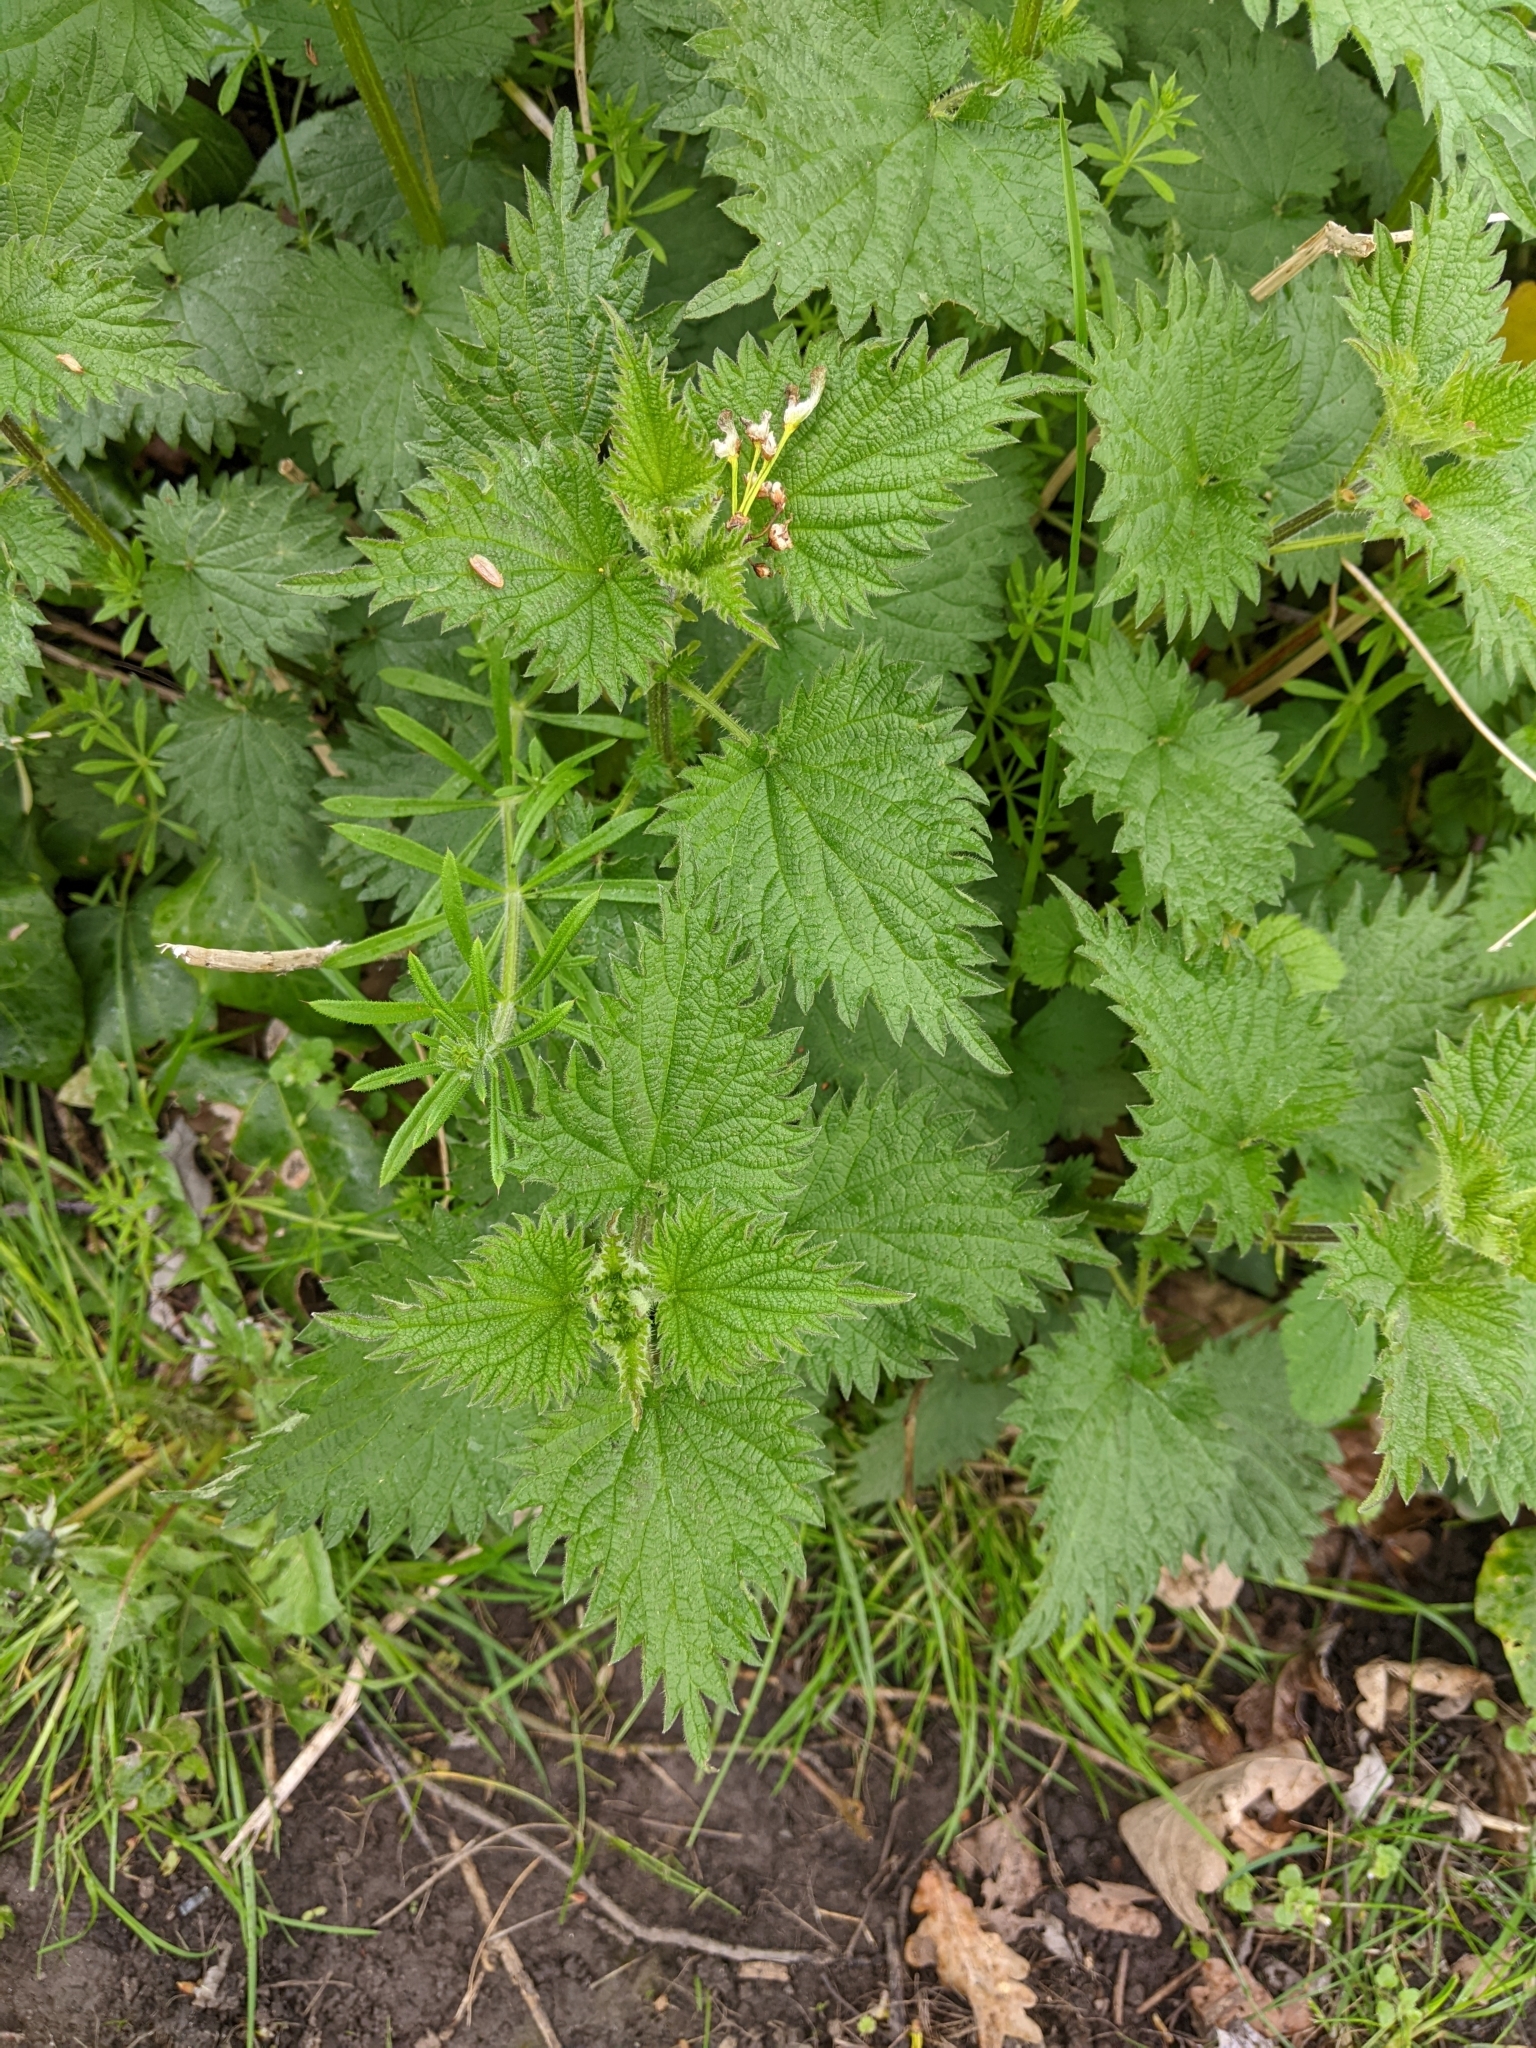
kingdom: Plantae
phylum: Tracheophyta
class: Magnoliopsida
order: Rosales
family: Urticaceae
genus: Urtica
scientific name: Urtica dioica
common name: Common nettle
